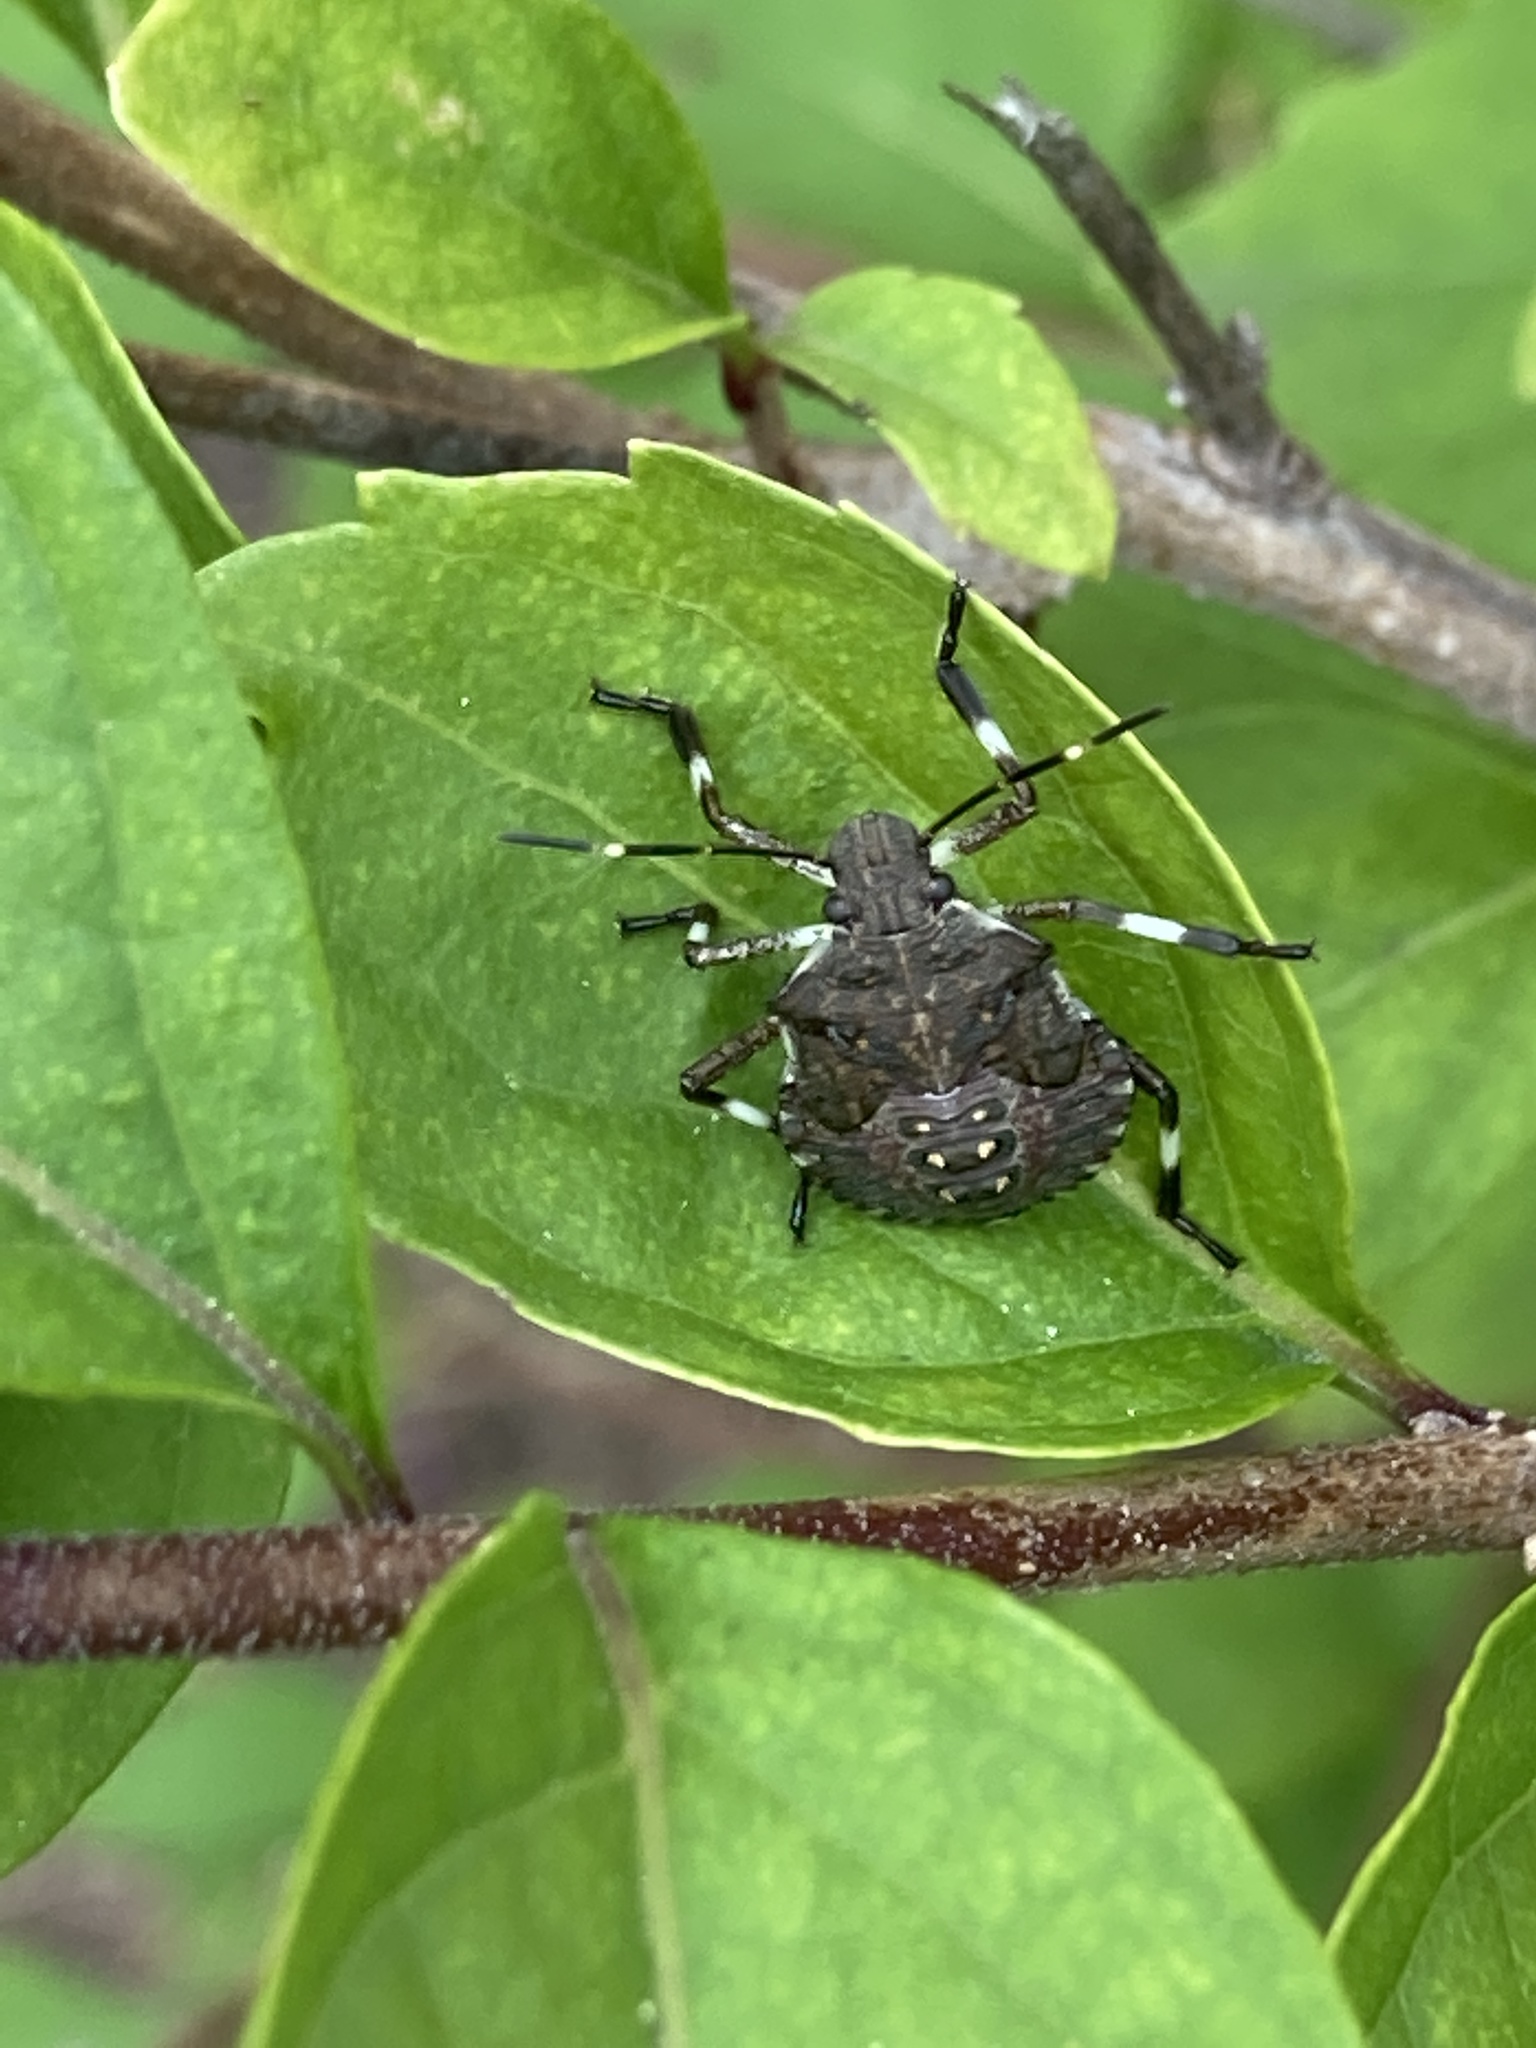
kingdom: Animalia
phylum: Arthropoda
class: Insecta
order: Hemiptera
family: Pentatomidae
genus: Halyomorpha
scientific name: Halyomorpha halys
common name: Brown marmorated stink bug
